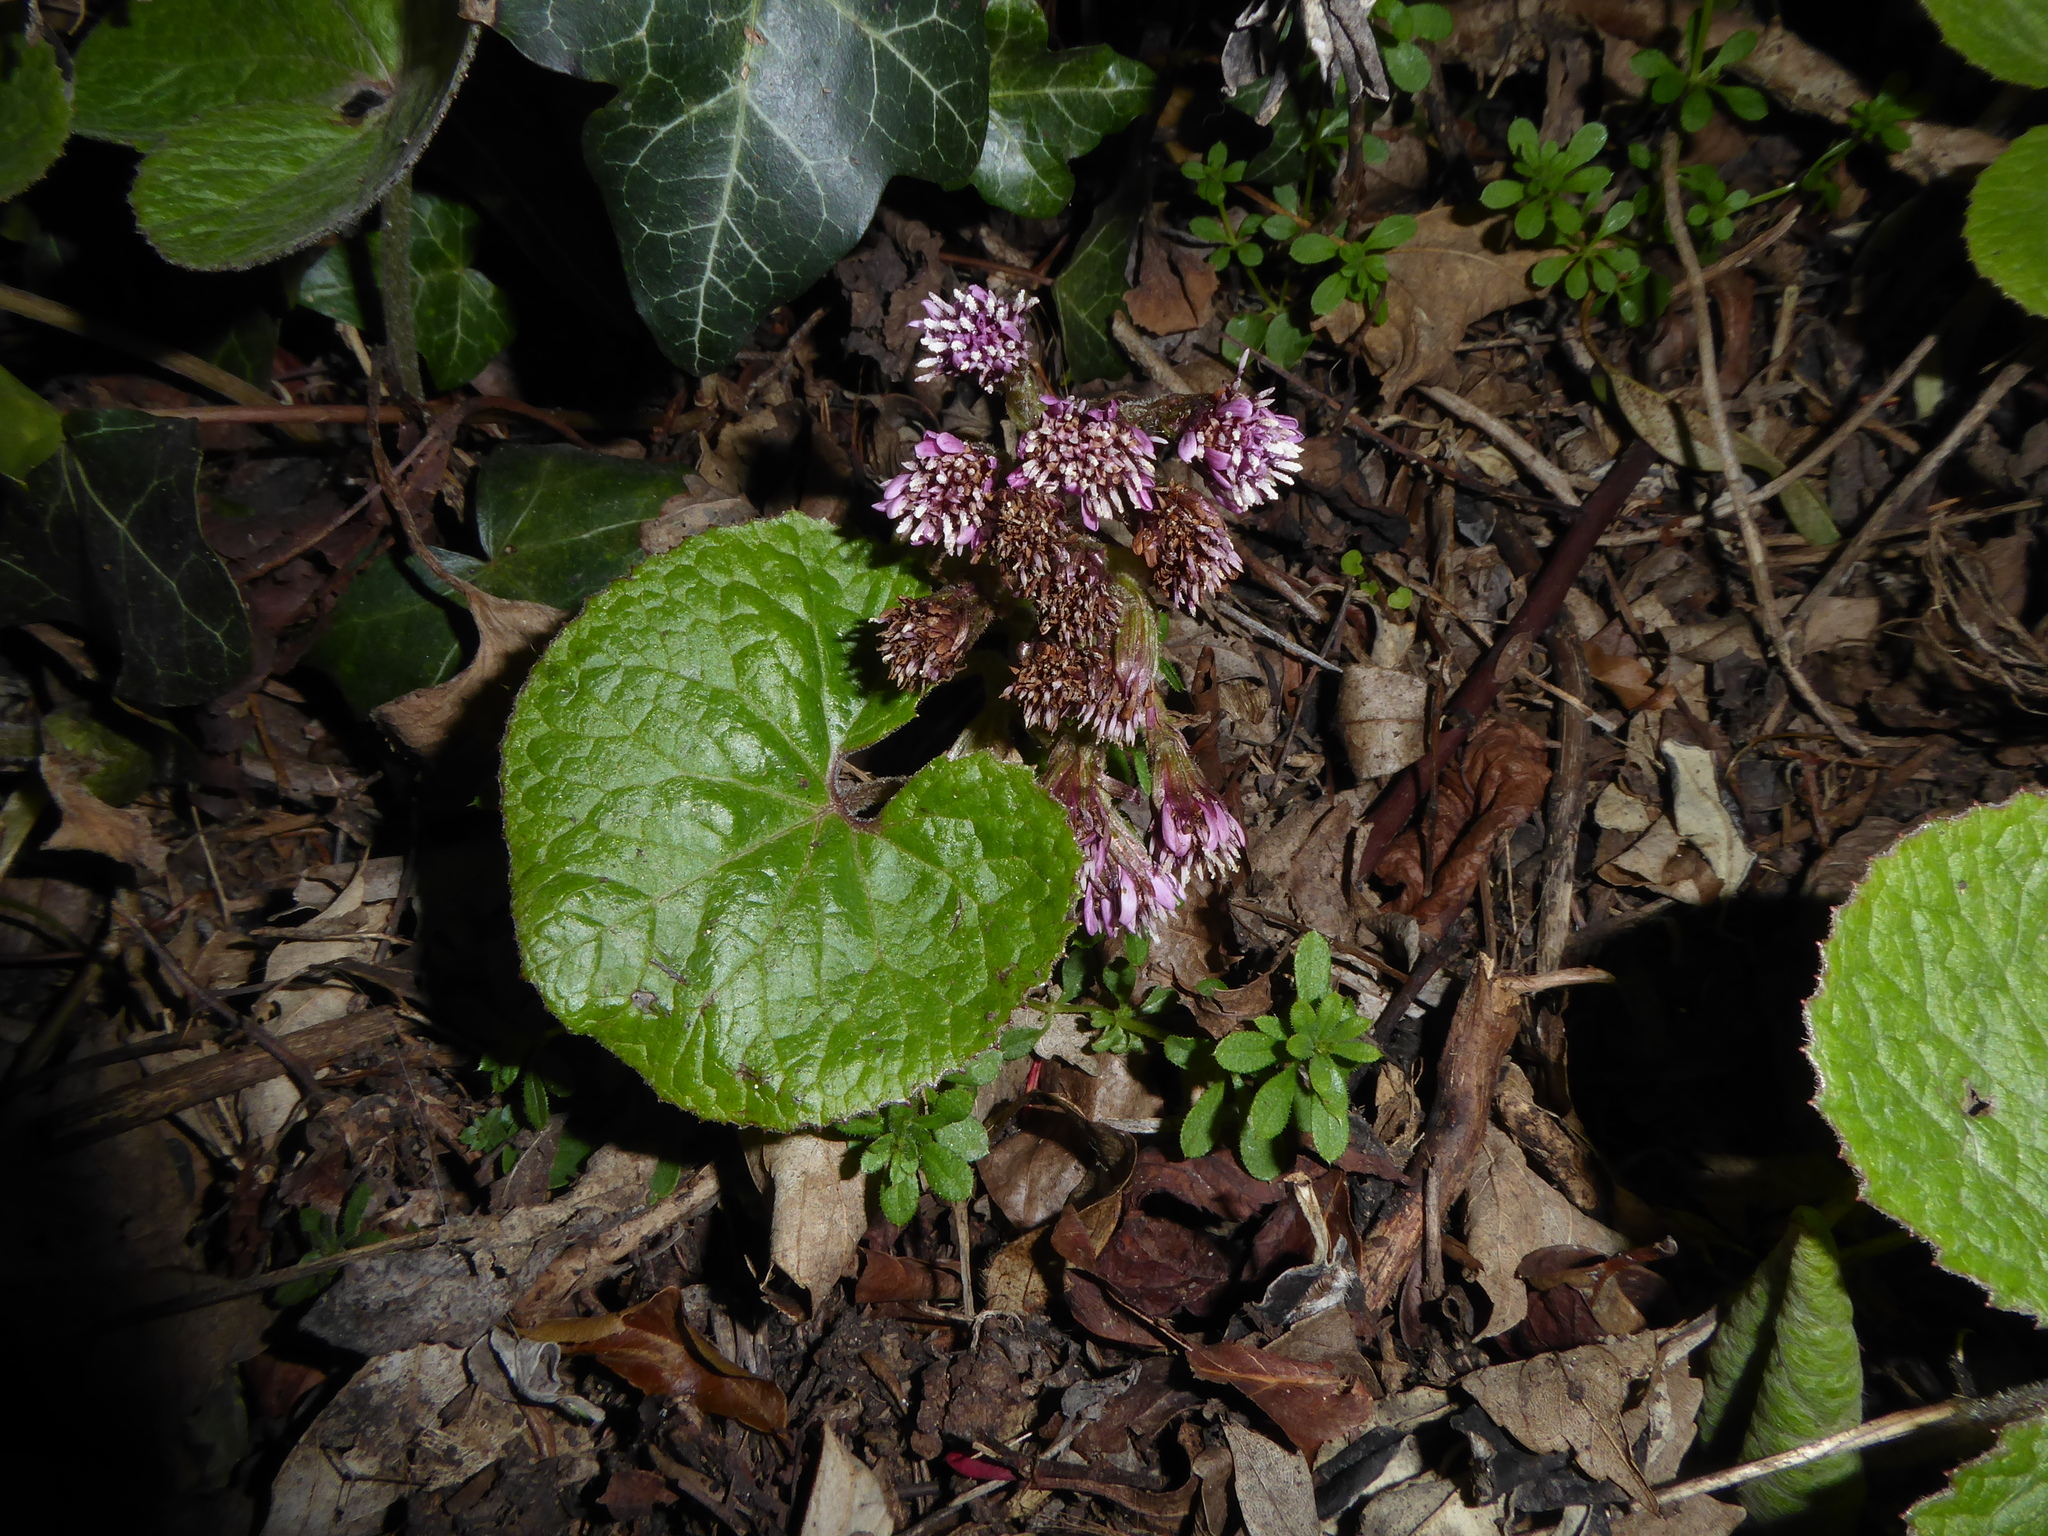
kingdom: Plantae
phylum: Tracheophyta
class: Magnoliopsida
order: Asterales
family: Asteraceae
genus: Petasites
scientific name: Petasites pyrenaicus
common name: Winter heliotrope
